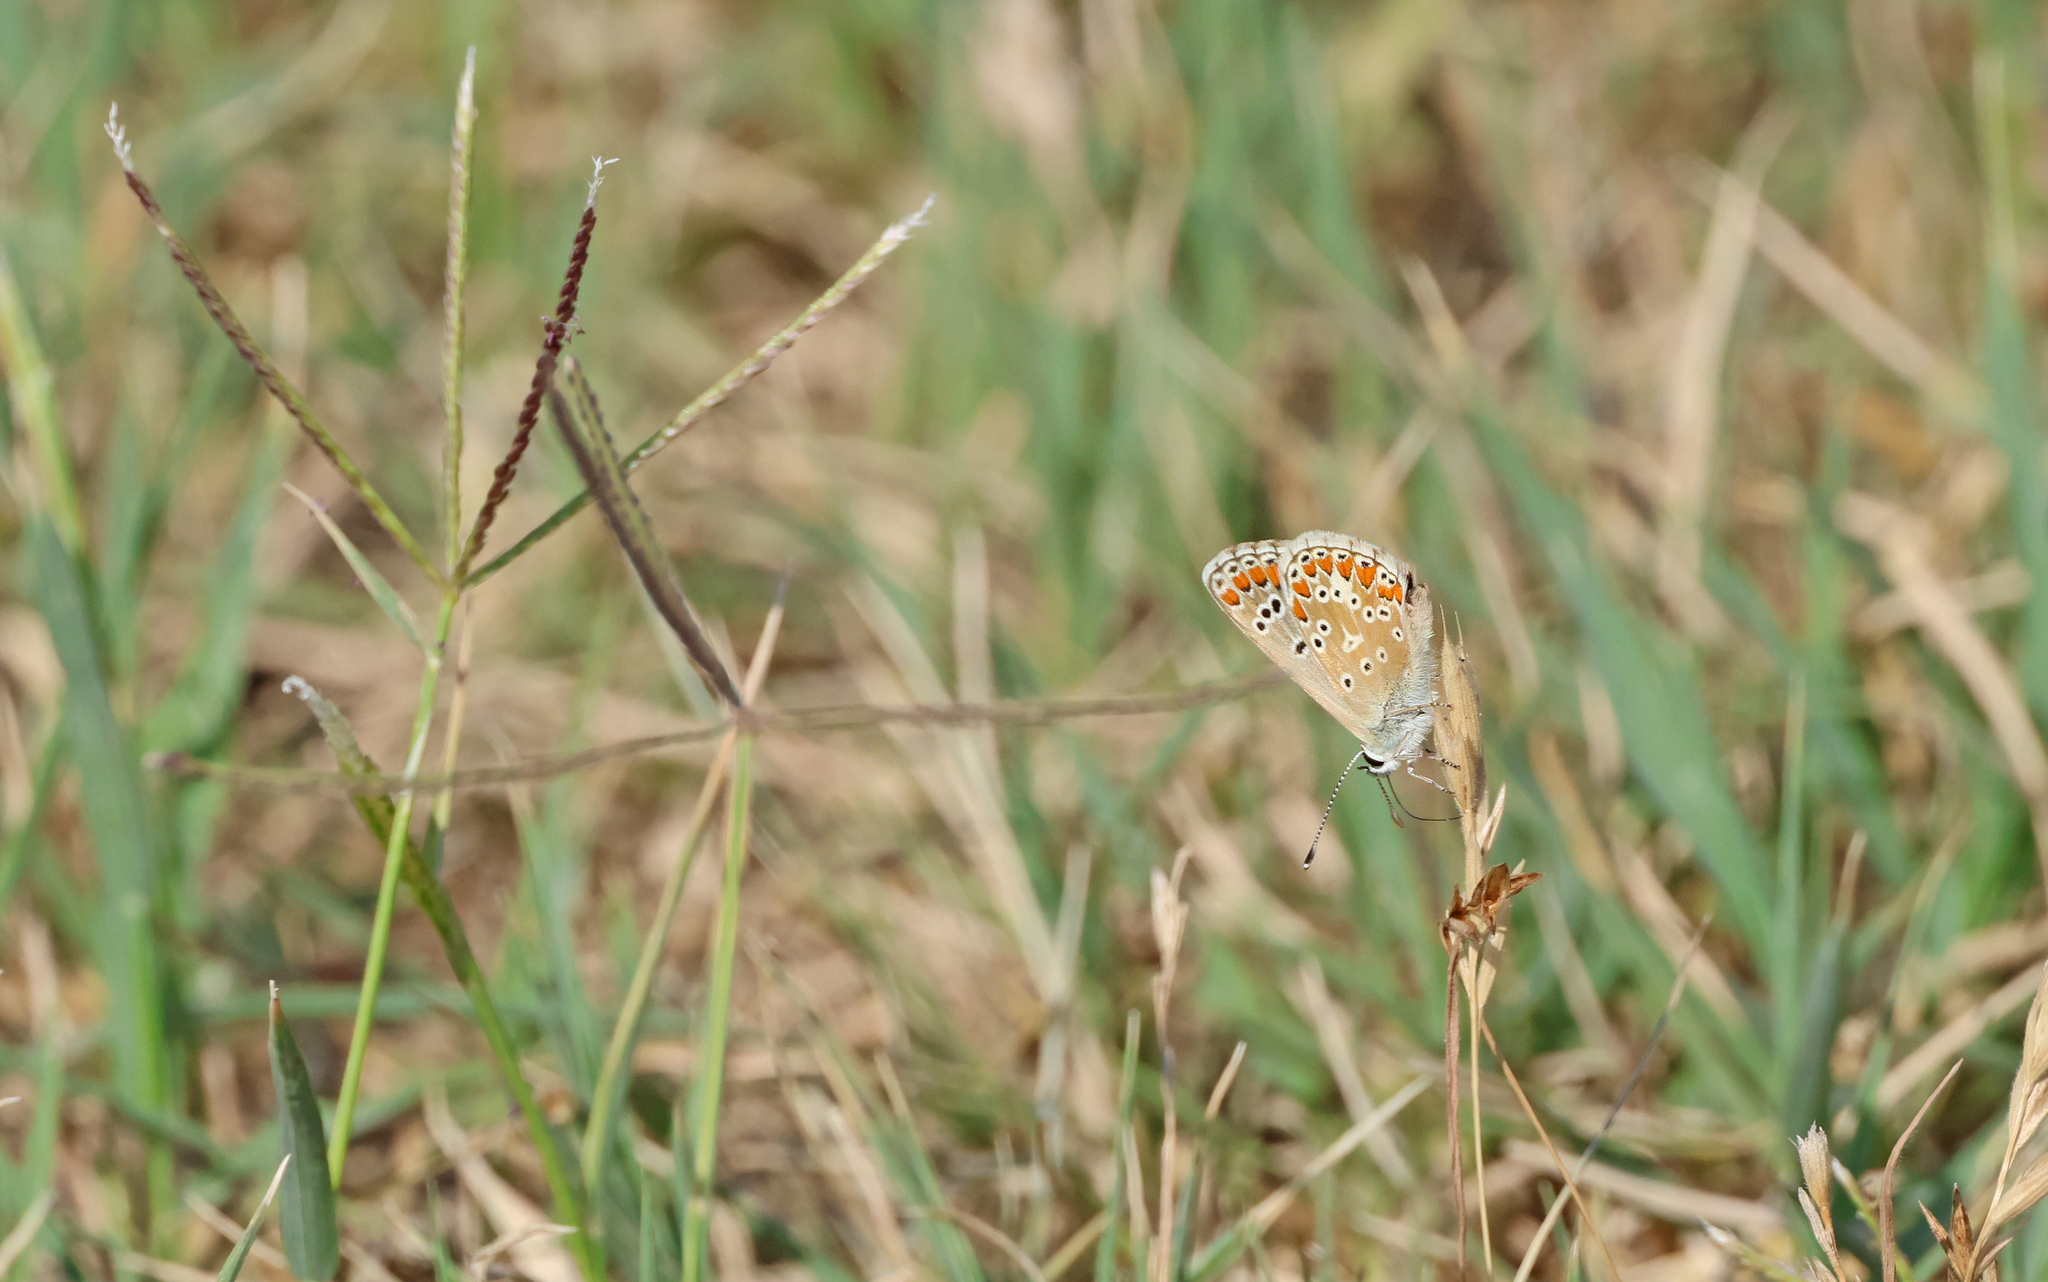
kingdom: Animalia
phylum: Arthropoda
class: Insecta
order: Lepidoptera
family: Lycaenidae
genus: Aricia
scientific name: Aricia agestis
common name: Brown argus
